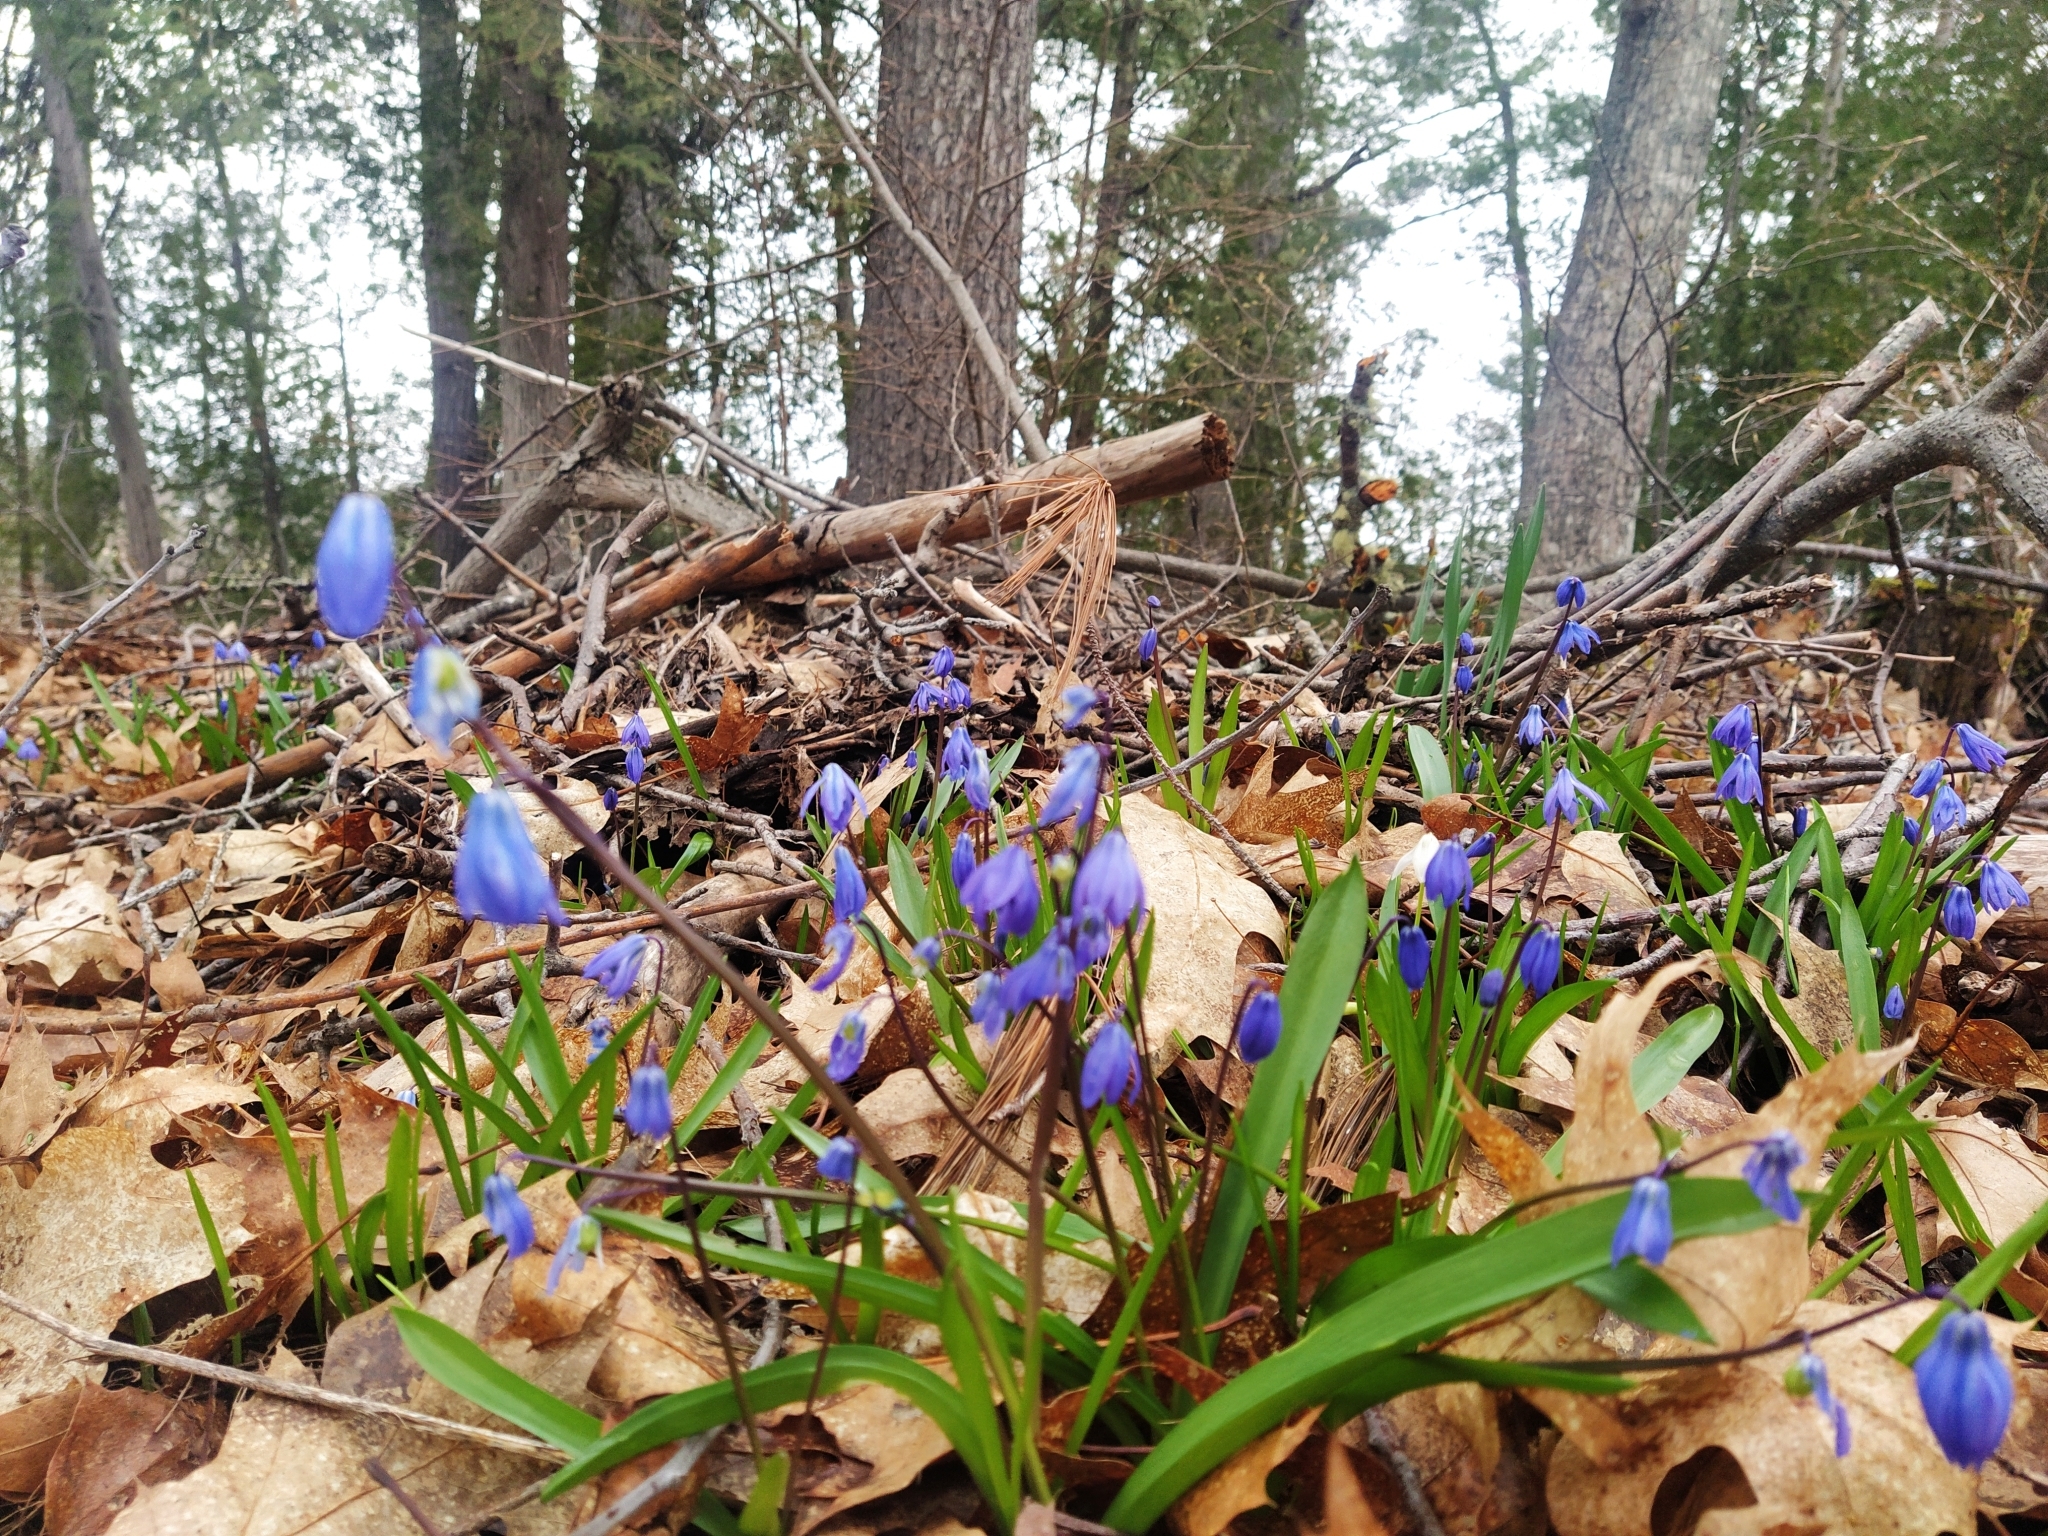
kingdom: Plantae
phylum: Tracheophyta
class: Liliopsida
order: Asparagales
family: Asparagaceae
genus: Scilla
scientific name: Scilla siberica
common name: Siberian squill
